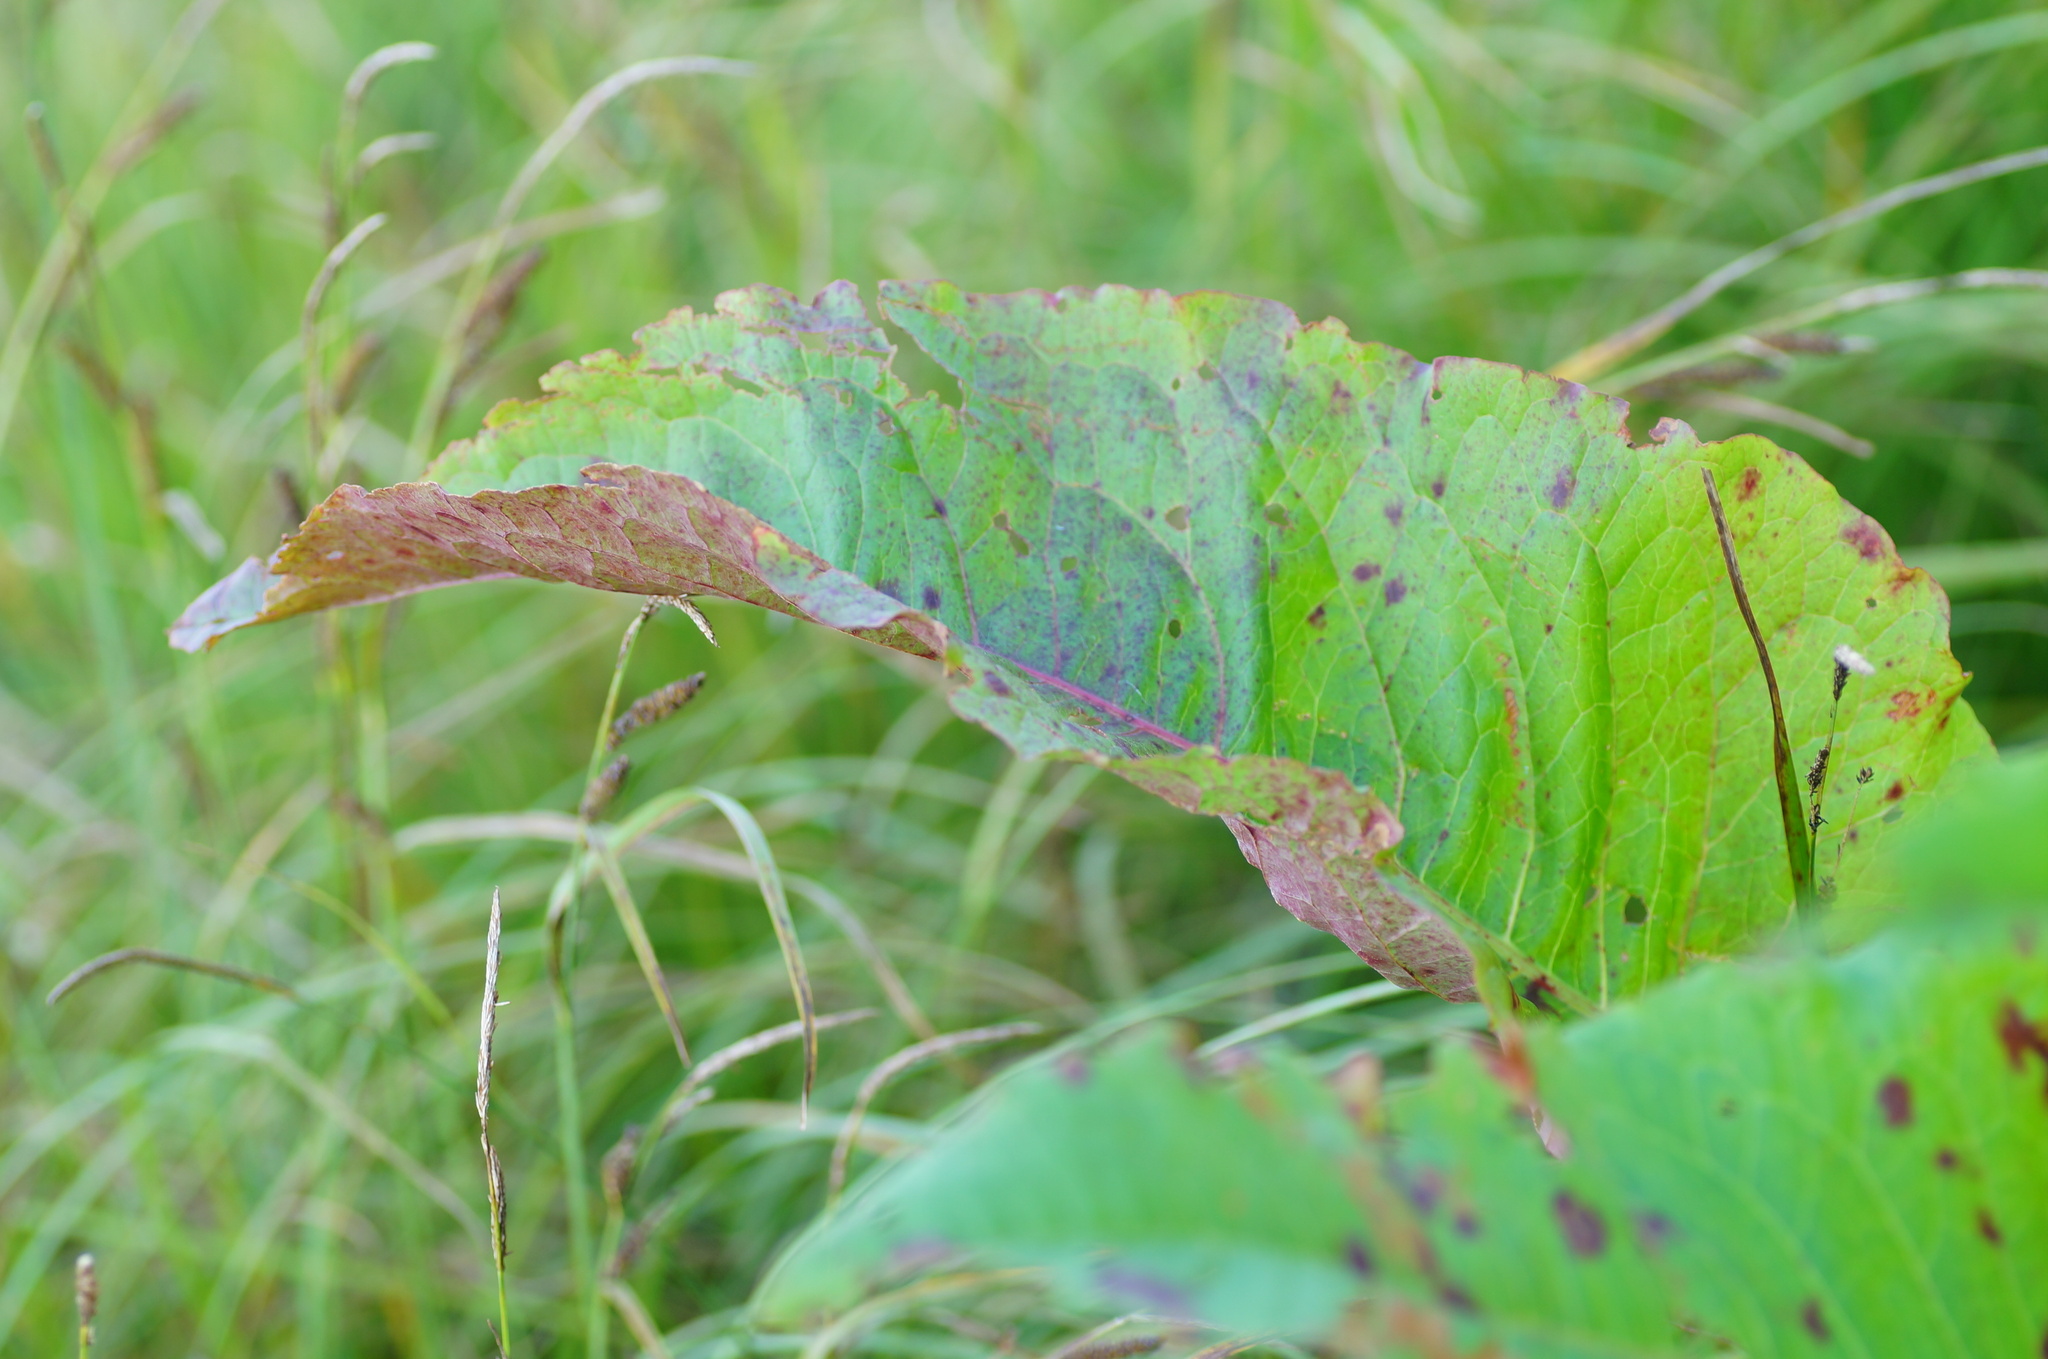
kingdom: Plantae
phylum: Tracheophyta
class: Magnoliopsida
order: Caryophyllales
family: Polygonaceae
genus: Rumex
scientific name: Rumex aquaticus
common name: Scottish dock
